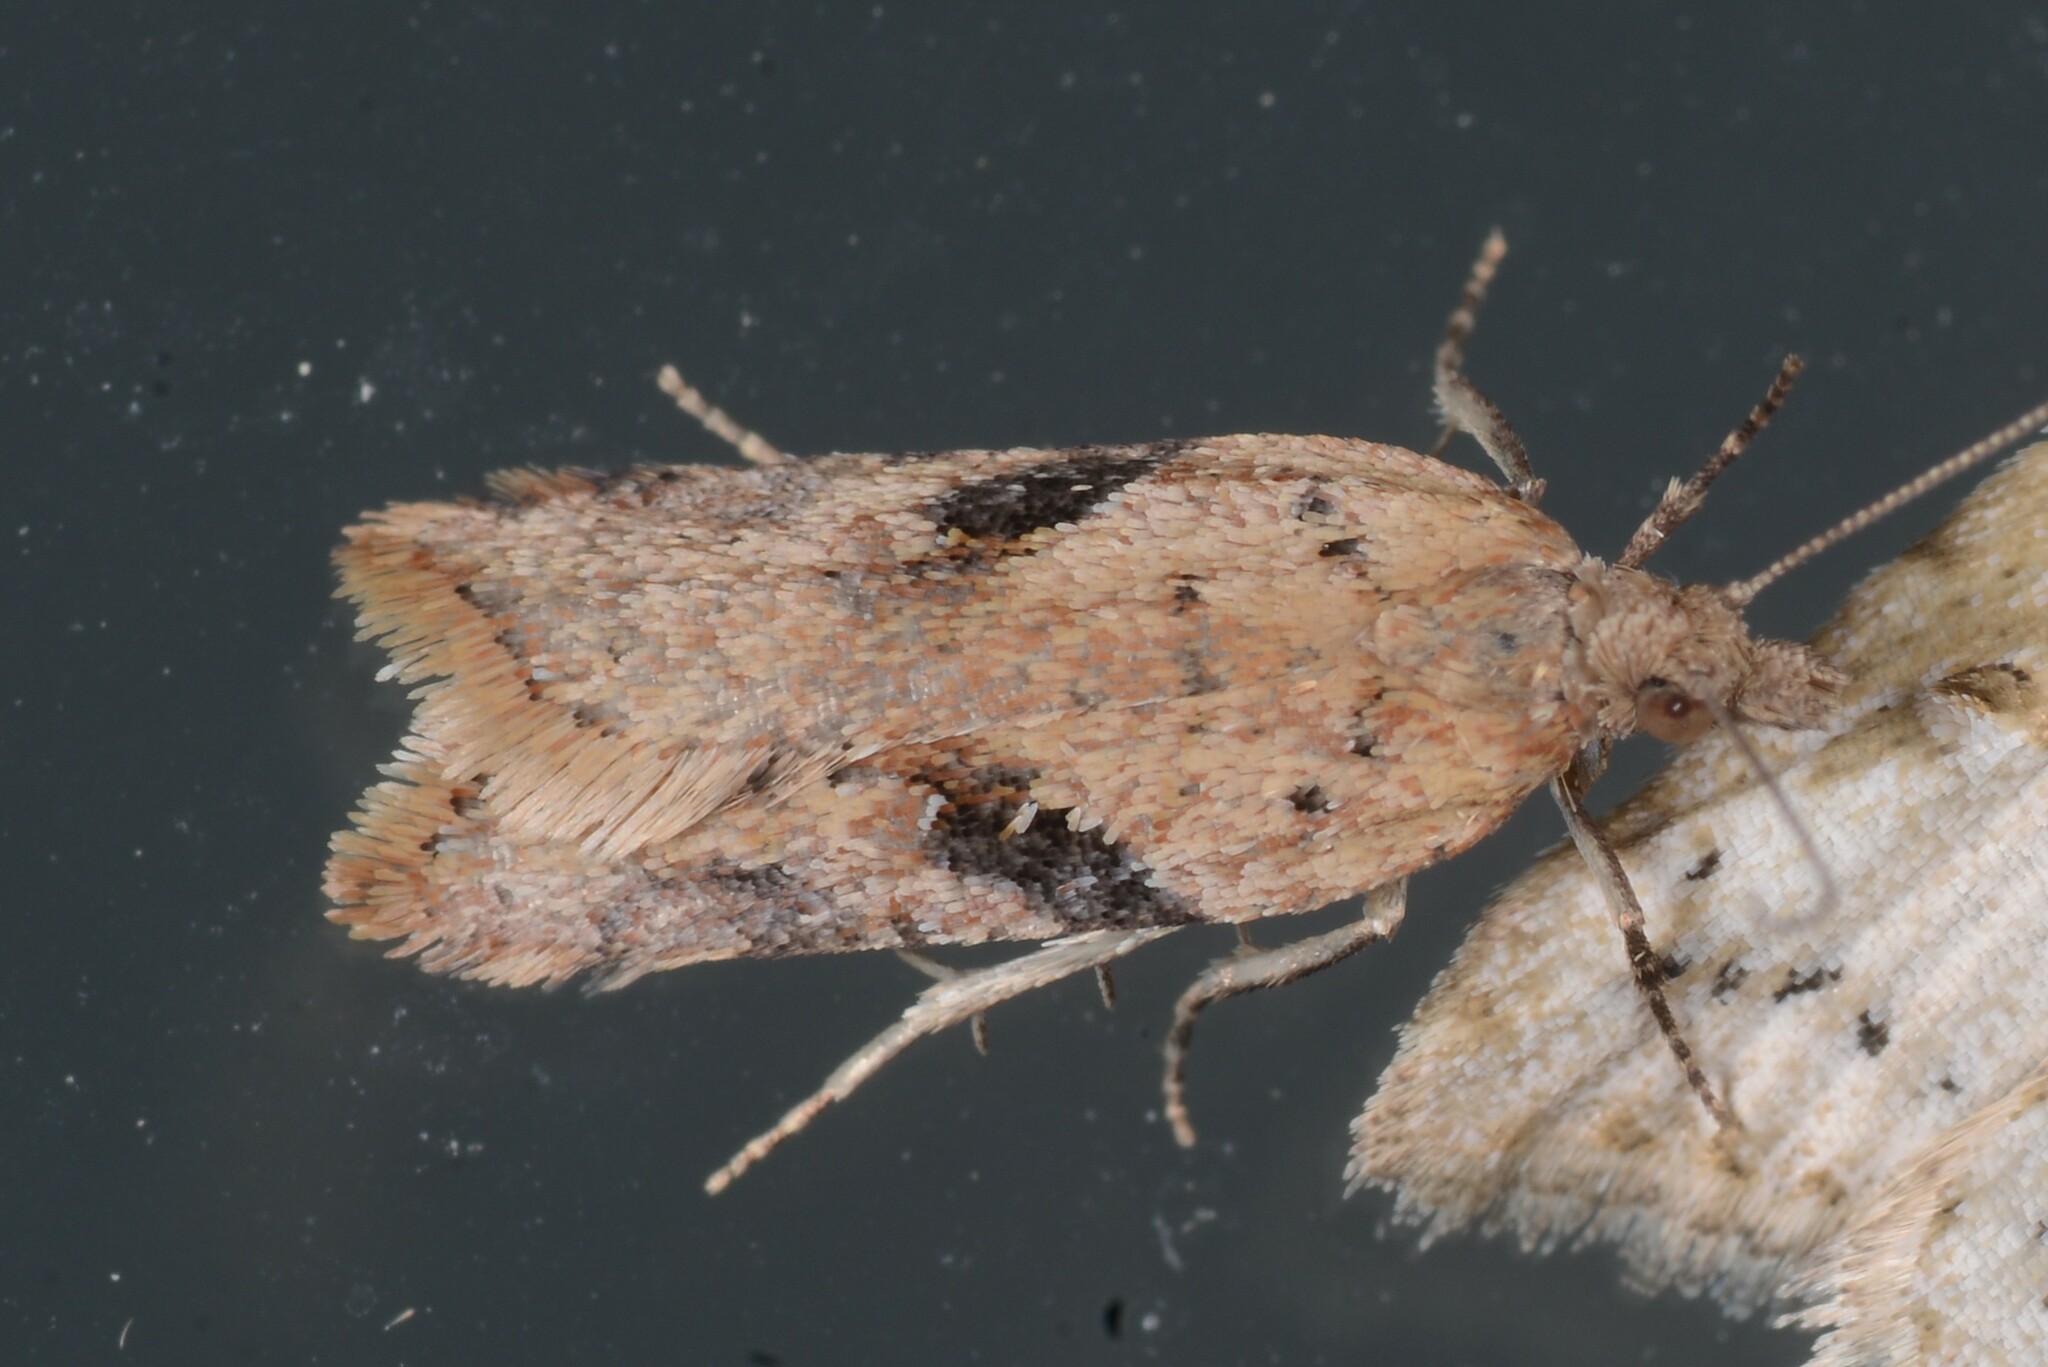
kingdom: Animalia
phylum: Arthropoda
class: Insecta
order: Lepidoptera
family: Tortricidae
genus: Capua
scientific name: Capua semiferana
